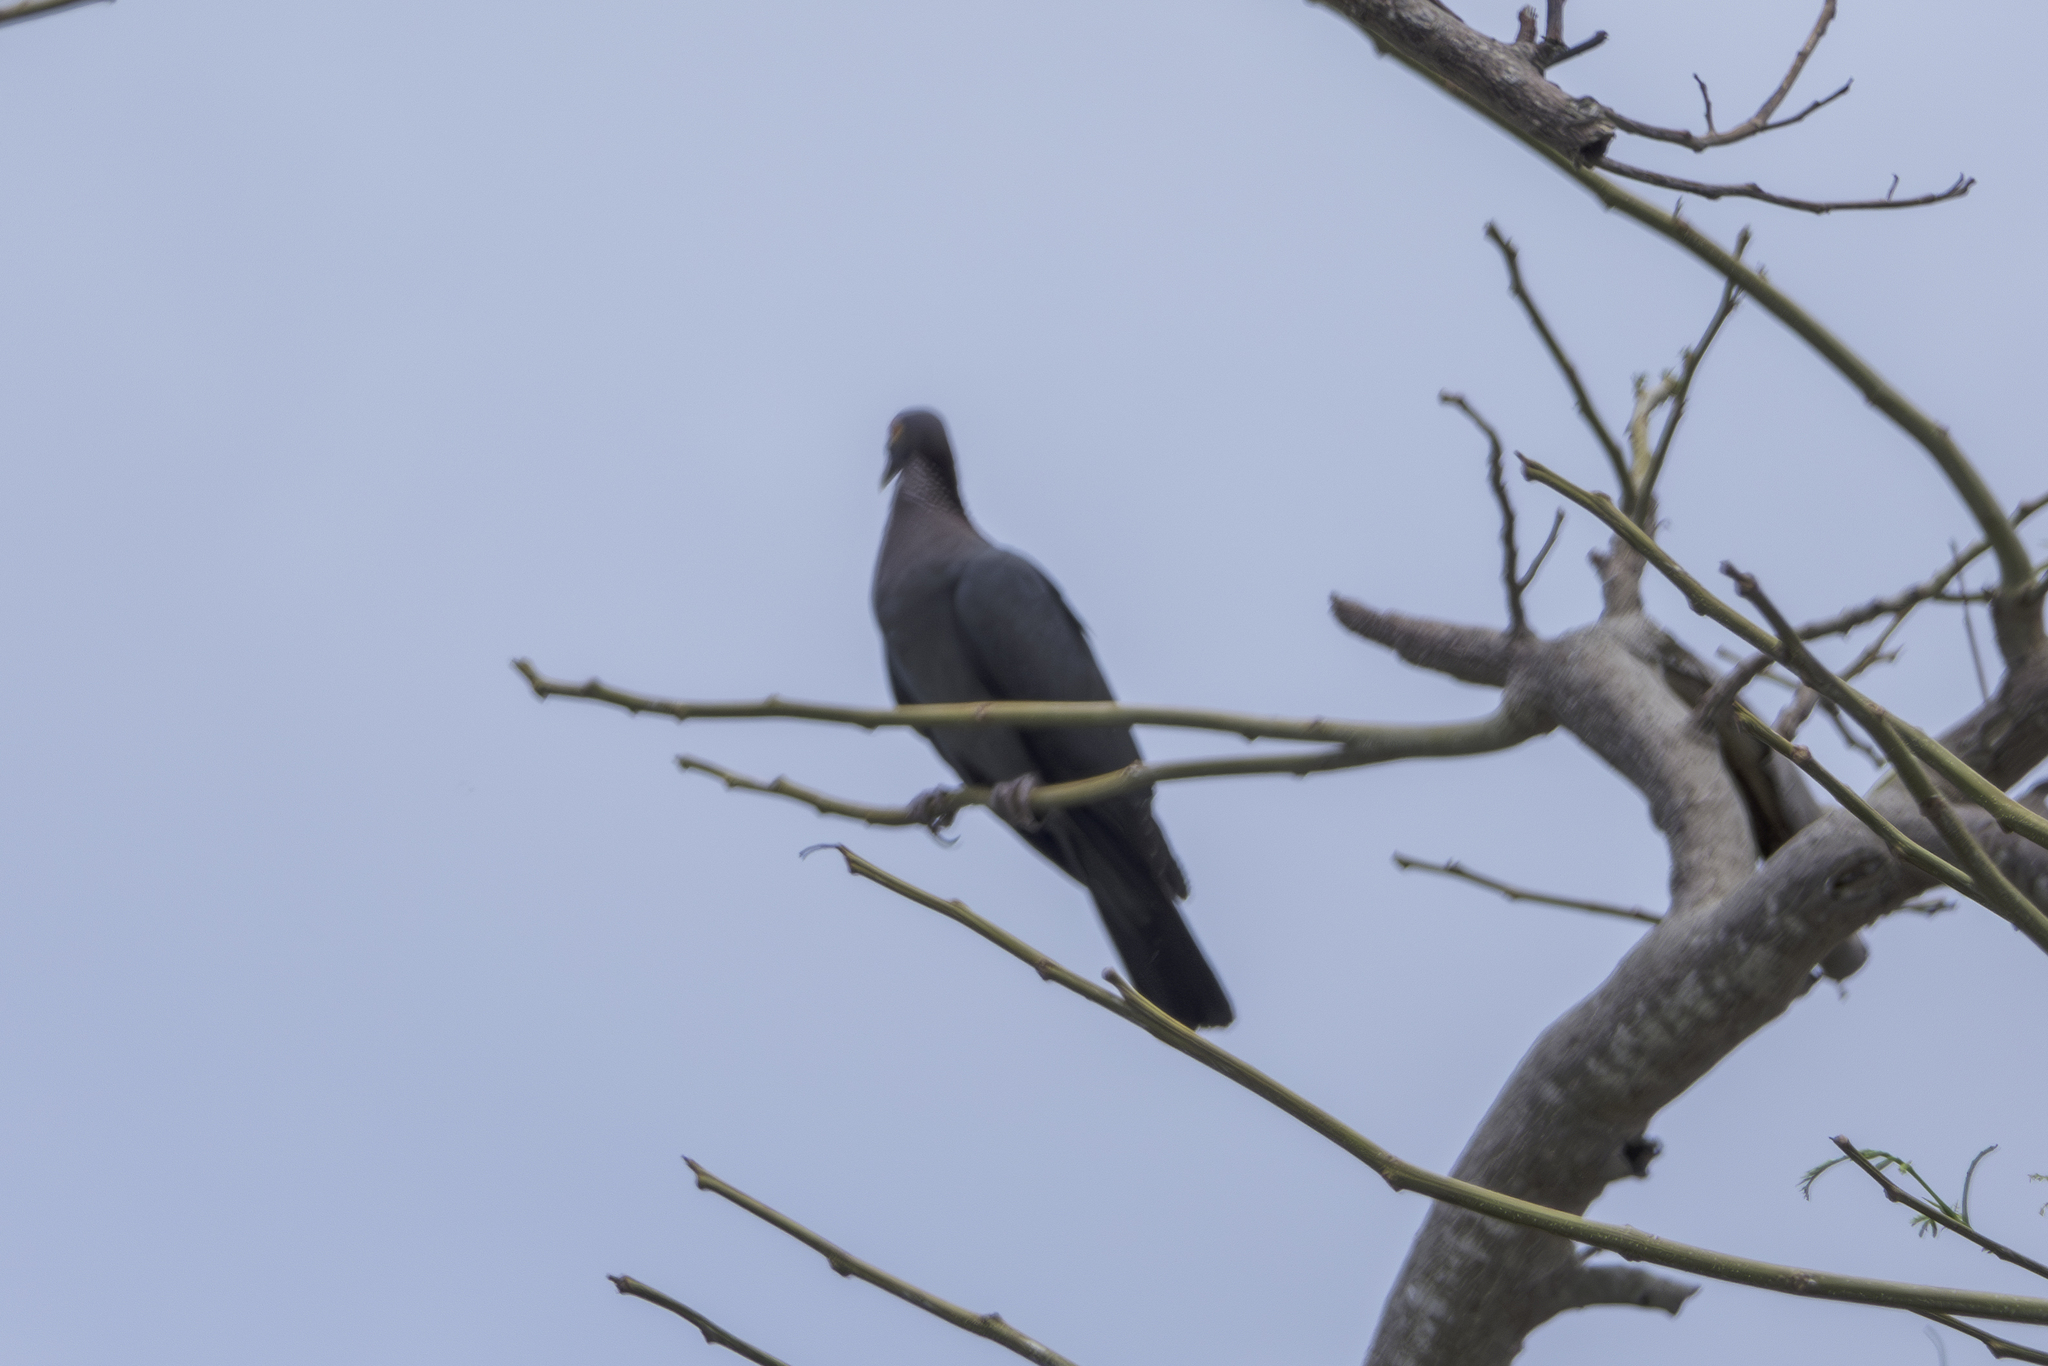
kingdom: Animalia
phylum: Chordata
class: Aves
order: Columbiformes
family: Columbidae
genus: Patagioenas
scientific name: Patagioenas squamosa
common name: Scaly-naped pigeon
